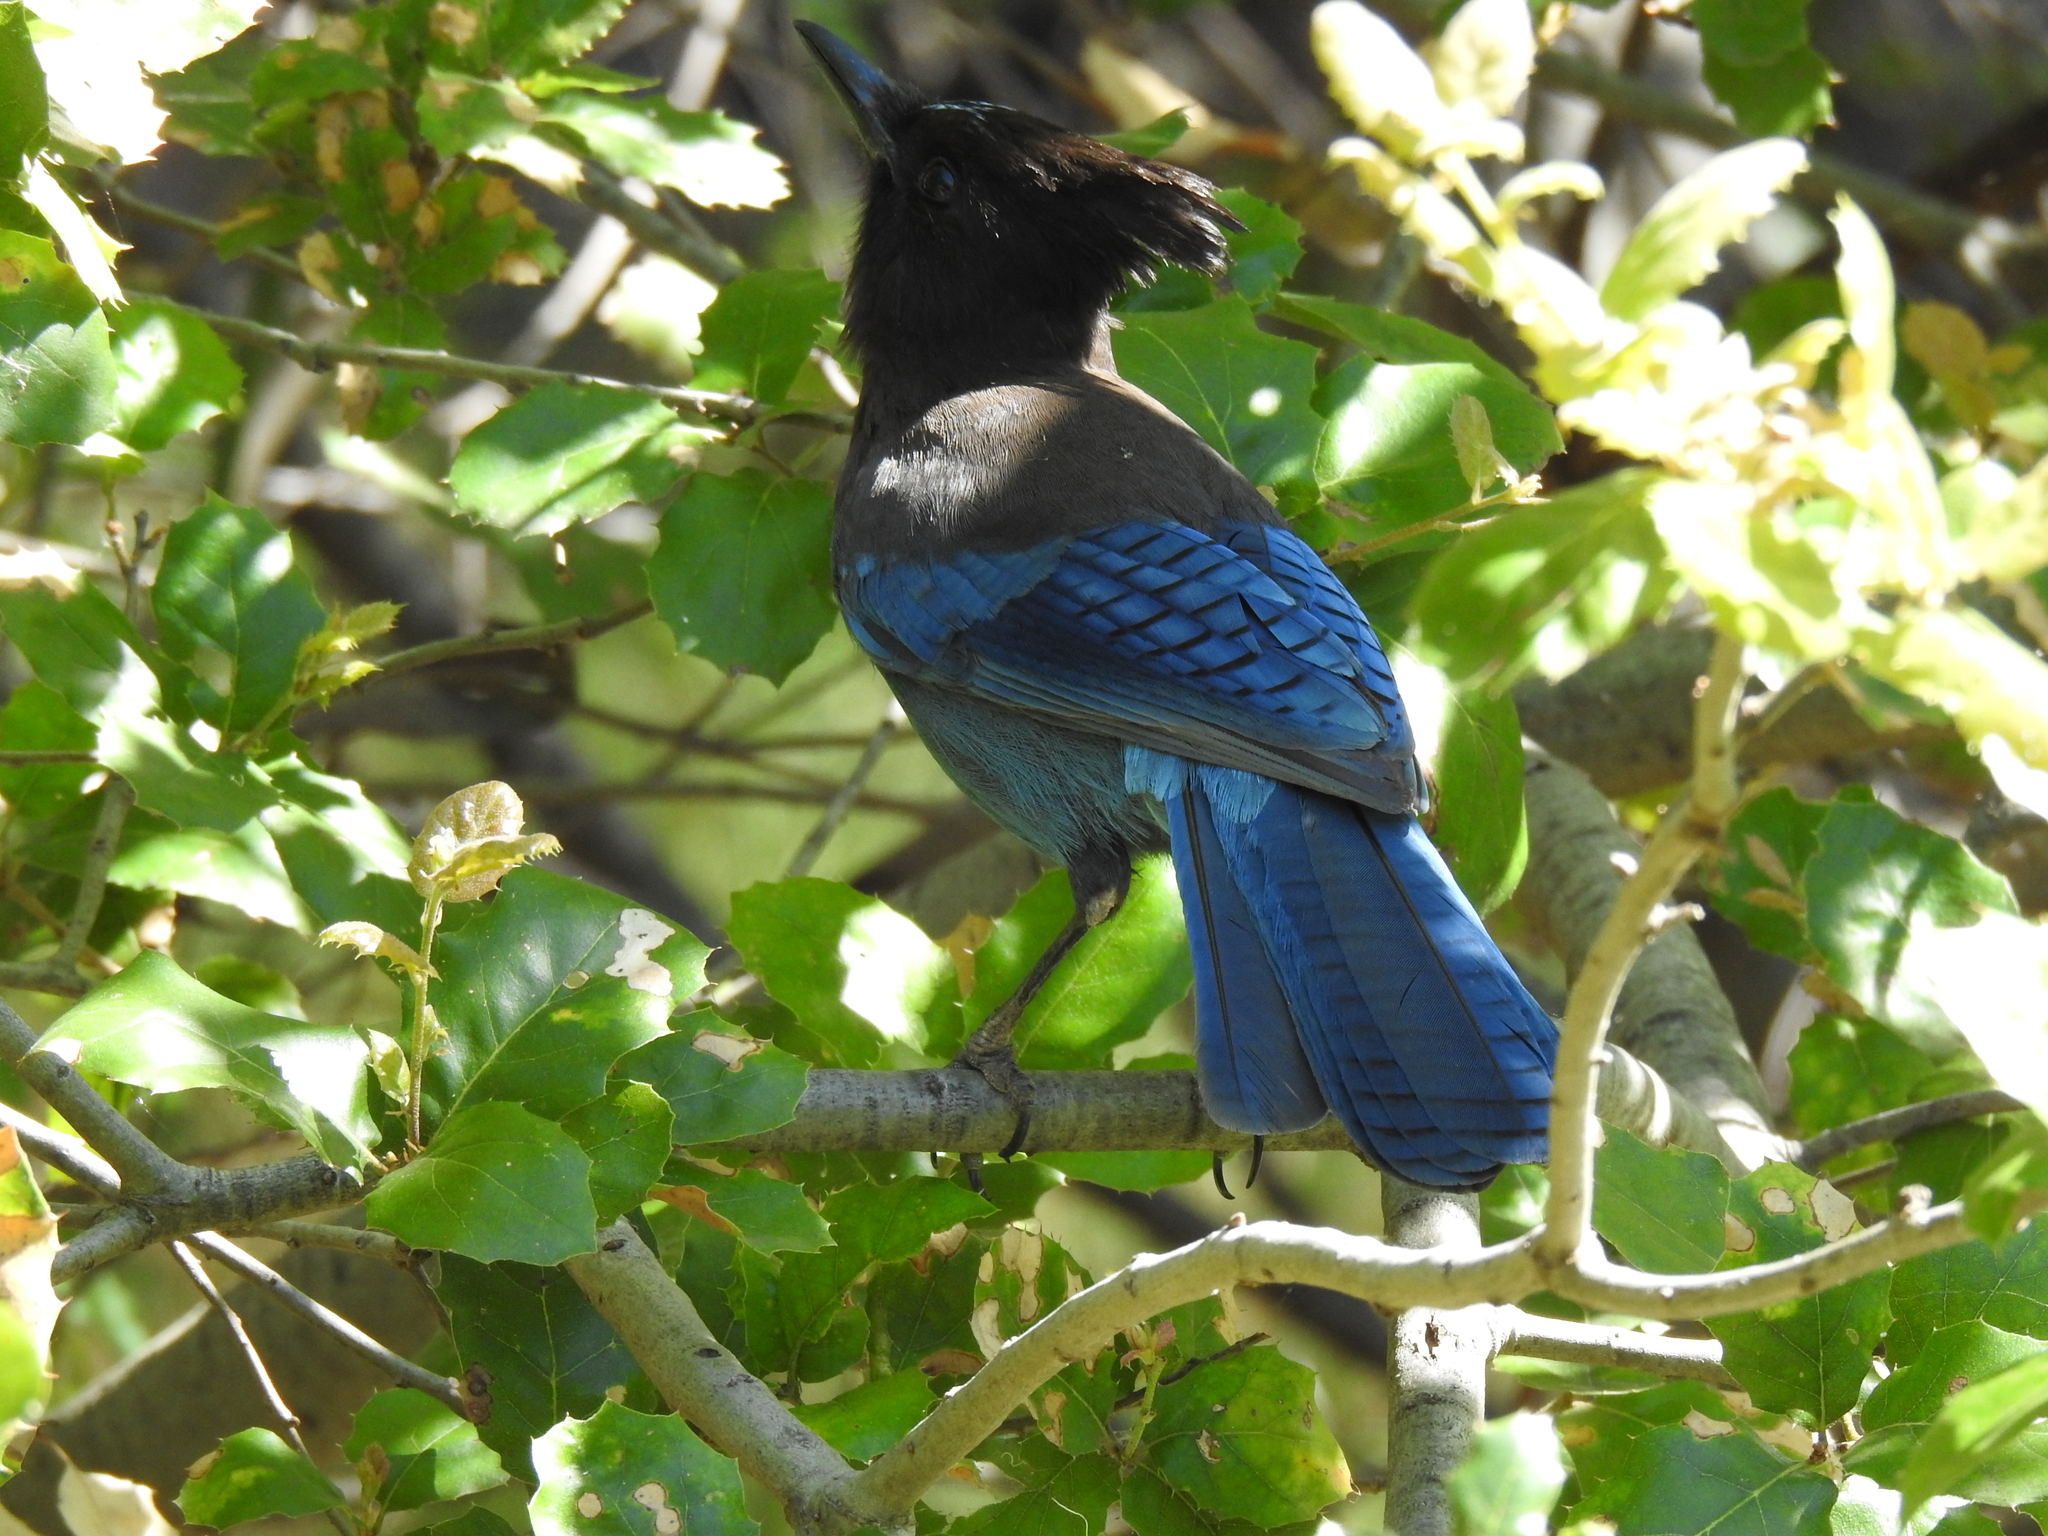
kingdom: Animalia
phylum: Chordata
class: Aves
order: Passeriformes
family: Corvidae
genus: Cyanocitta
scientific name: Cyanocitta stelleri
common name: Steller's jay
